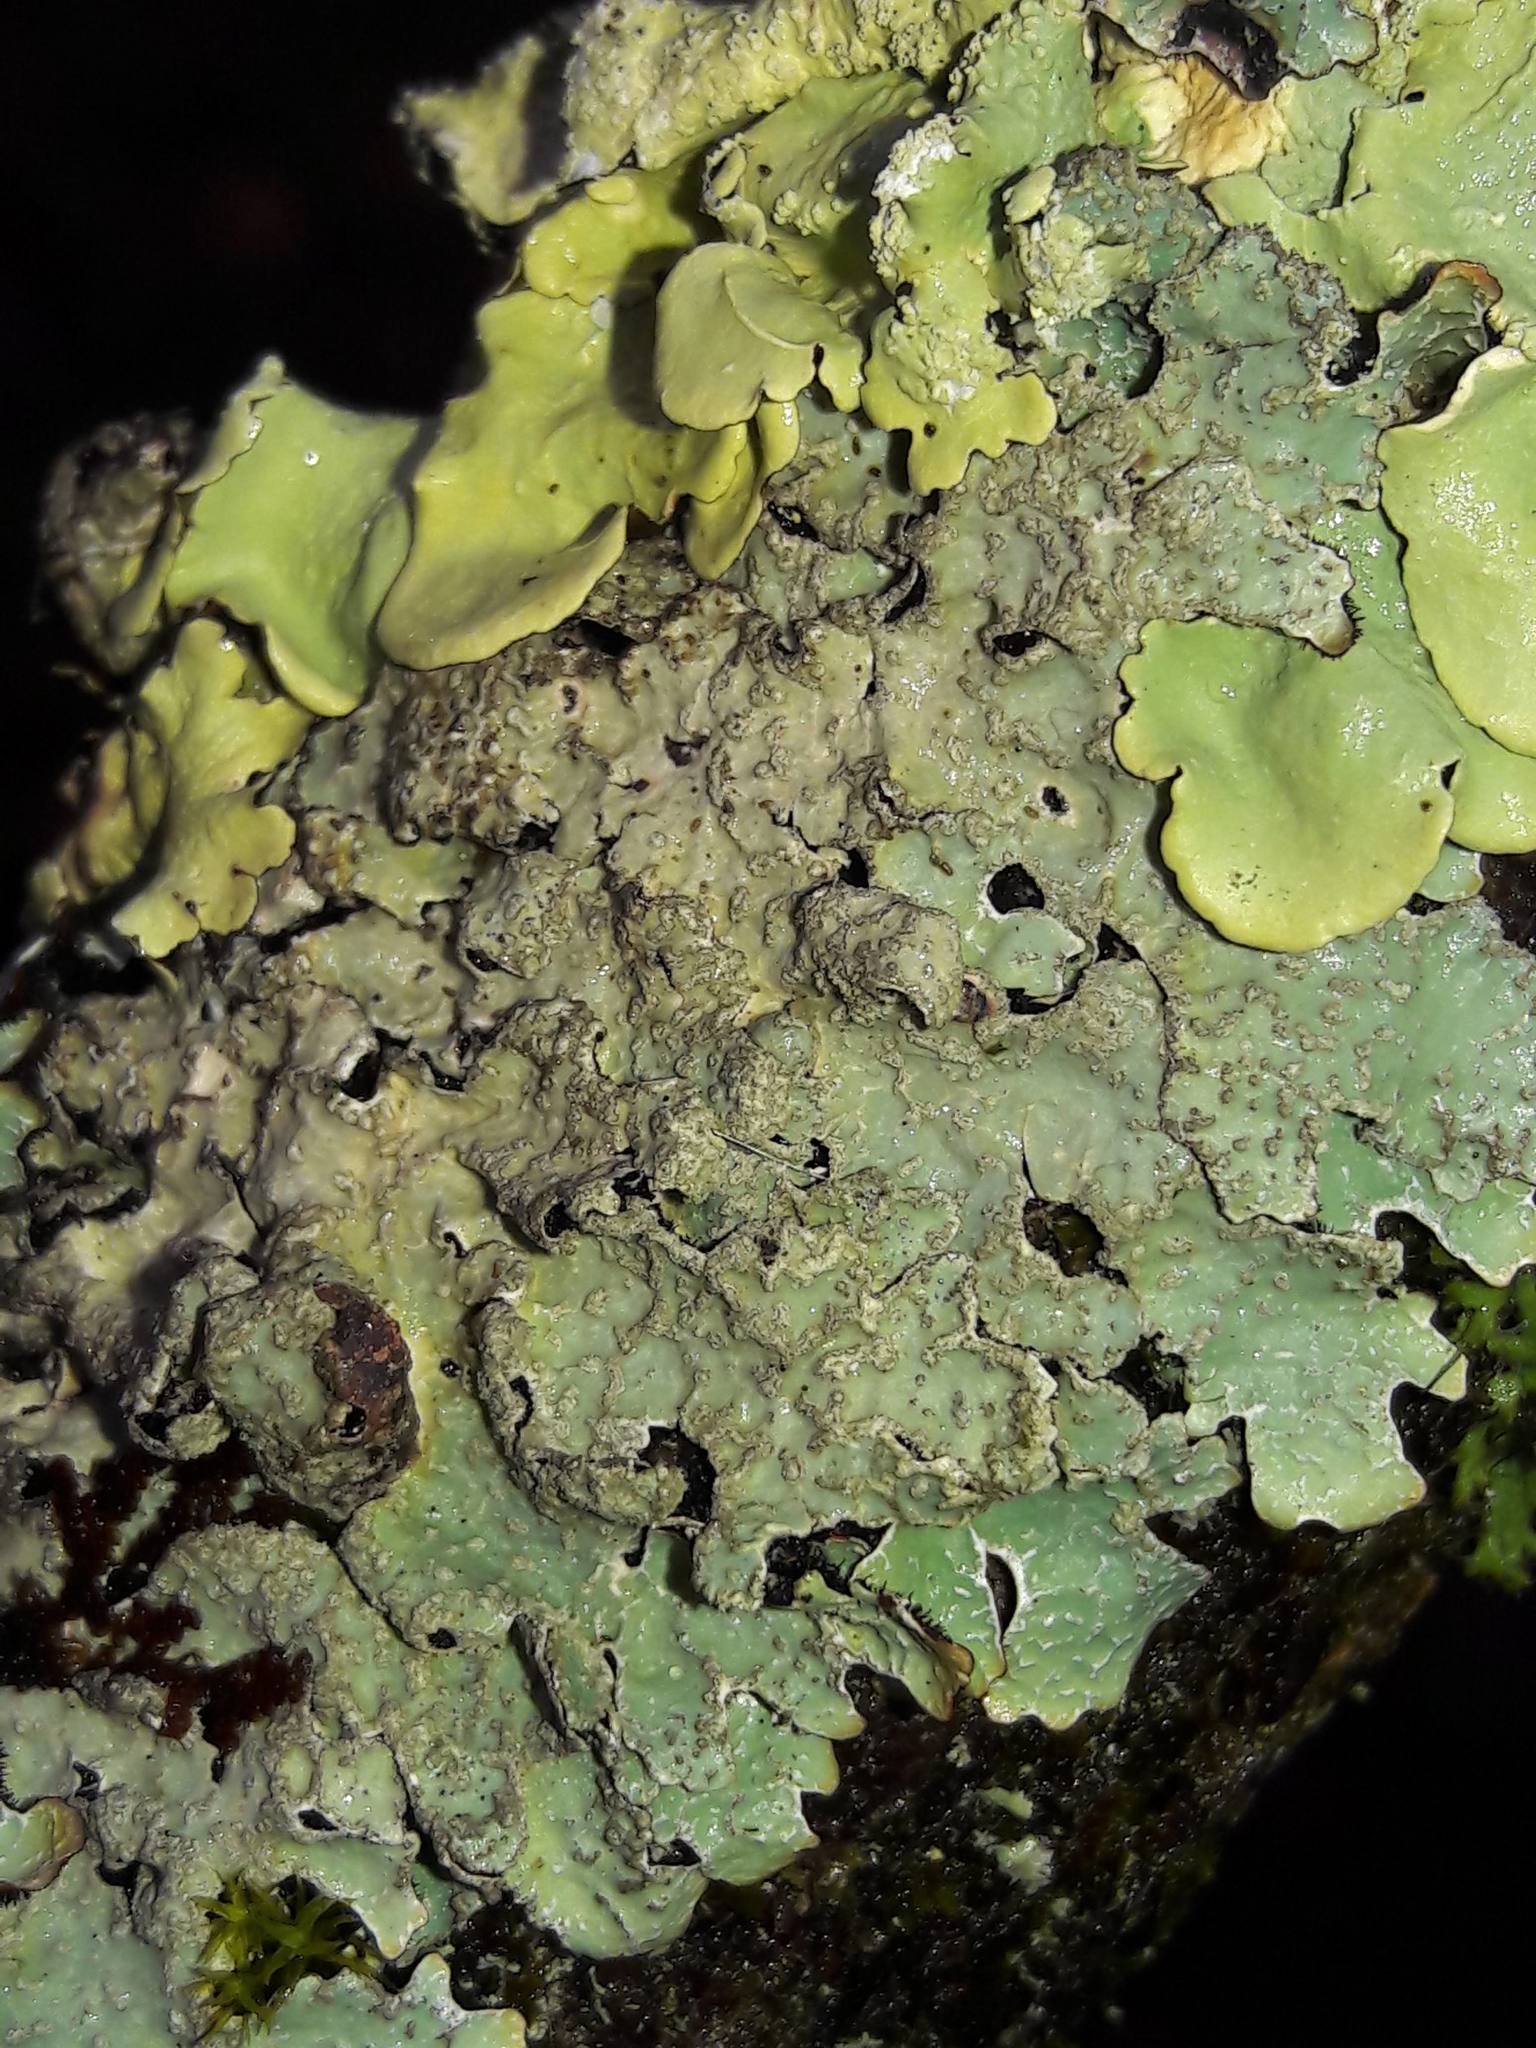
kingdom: Fungi
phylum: Ascomycota
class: Lecanoromycetes
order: Lecanorales
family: Parmeliaceae
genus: Parmelia
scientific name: Parmelia sulcata
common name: Netted shield lichen
